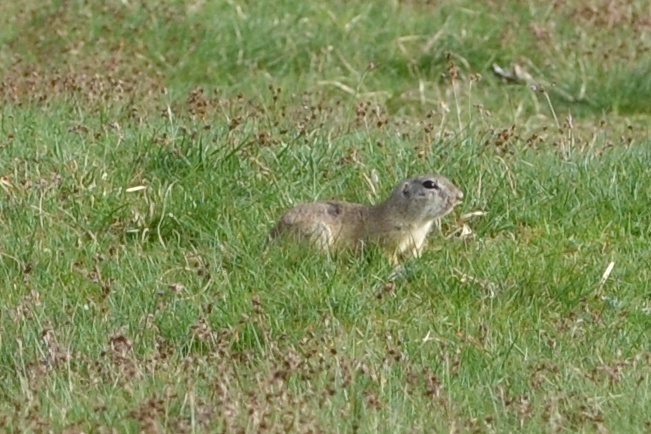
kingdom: Animalia
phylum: Chordata
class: Mammalia
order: Rodentia
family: Sciuridae
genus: Spermophilus
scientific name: Spermophilus citellus
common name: European ground squirrel
